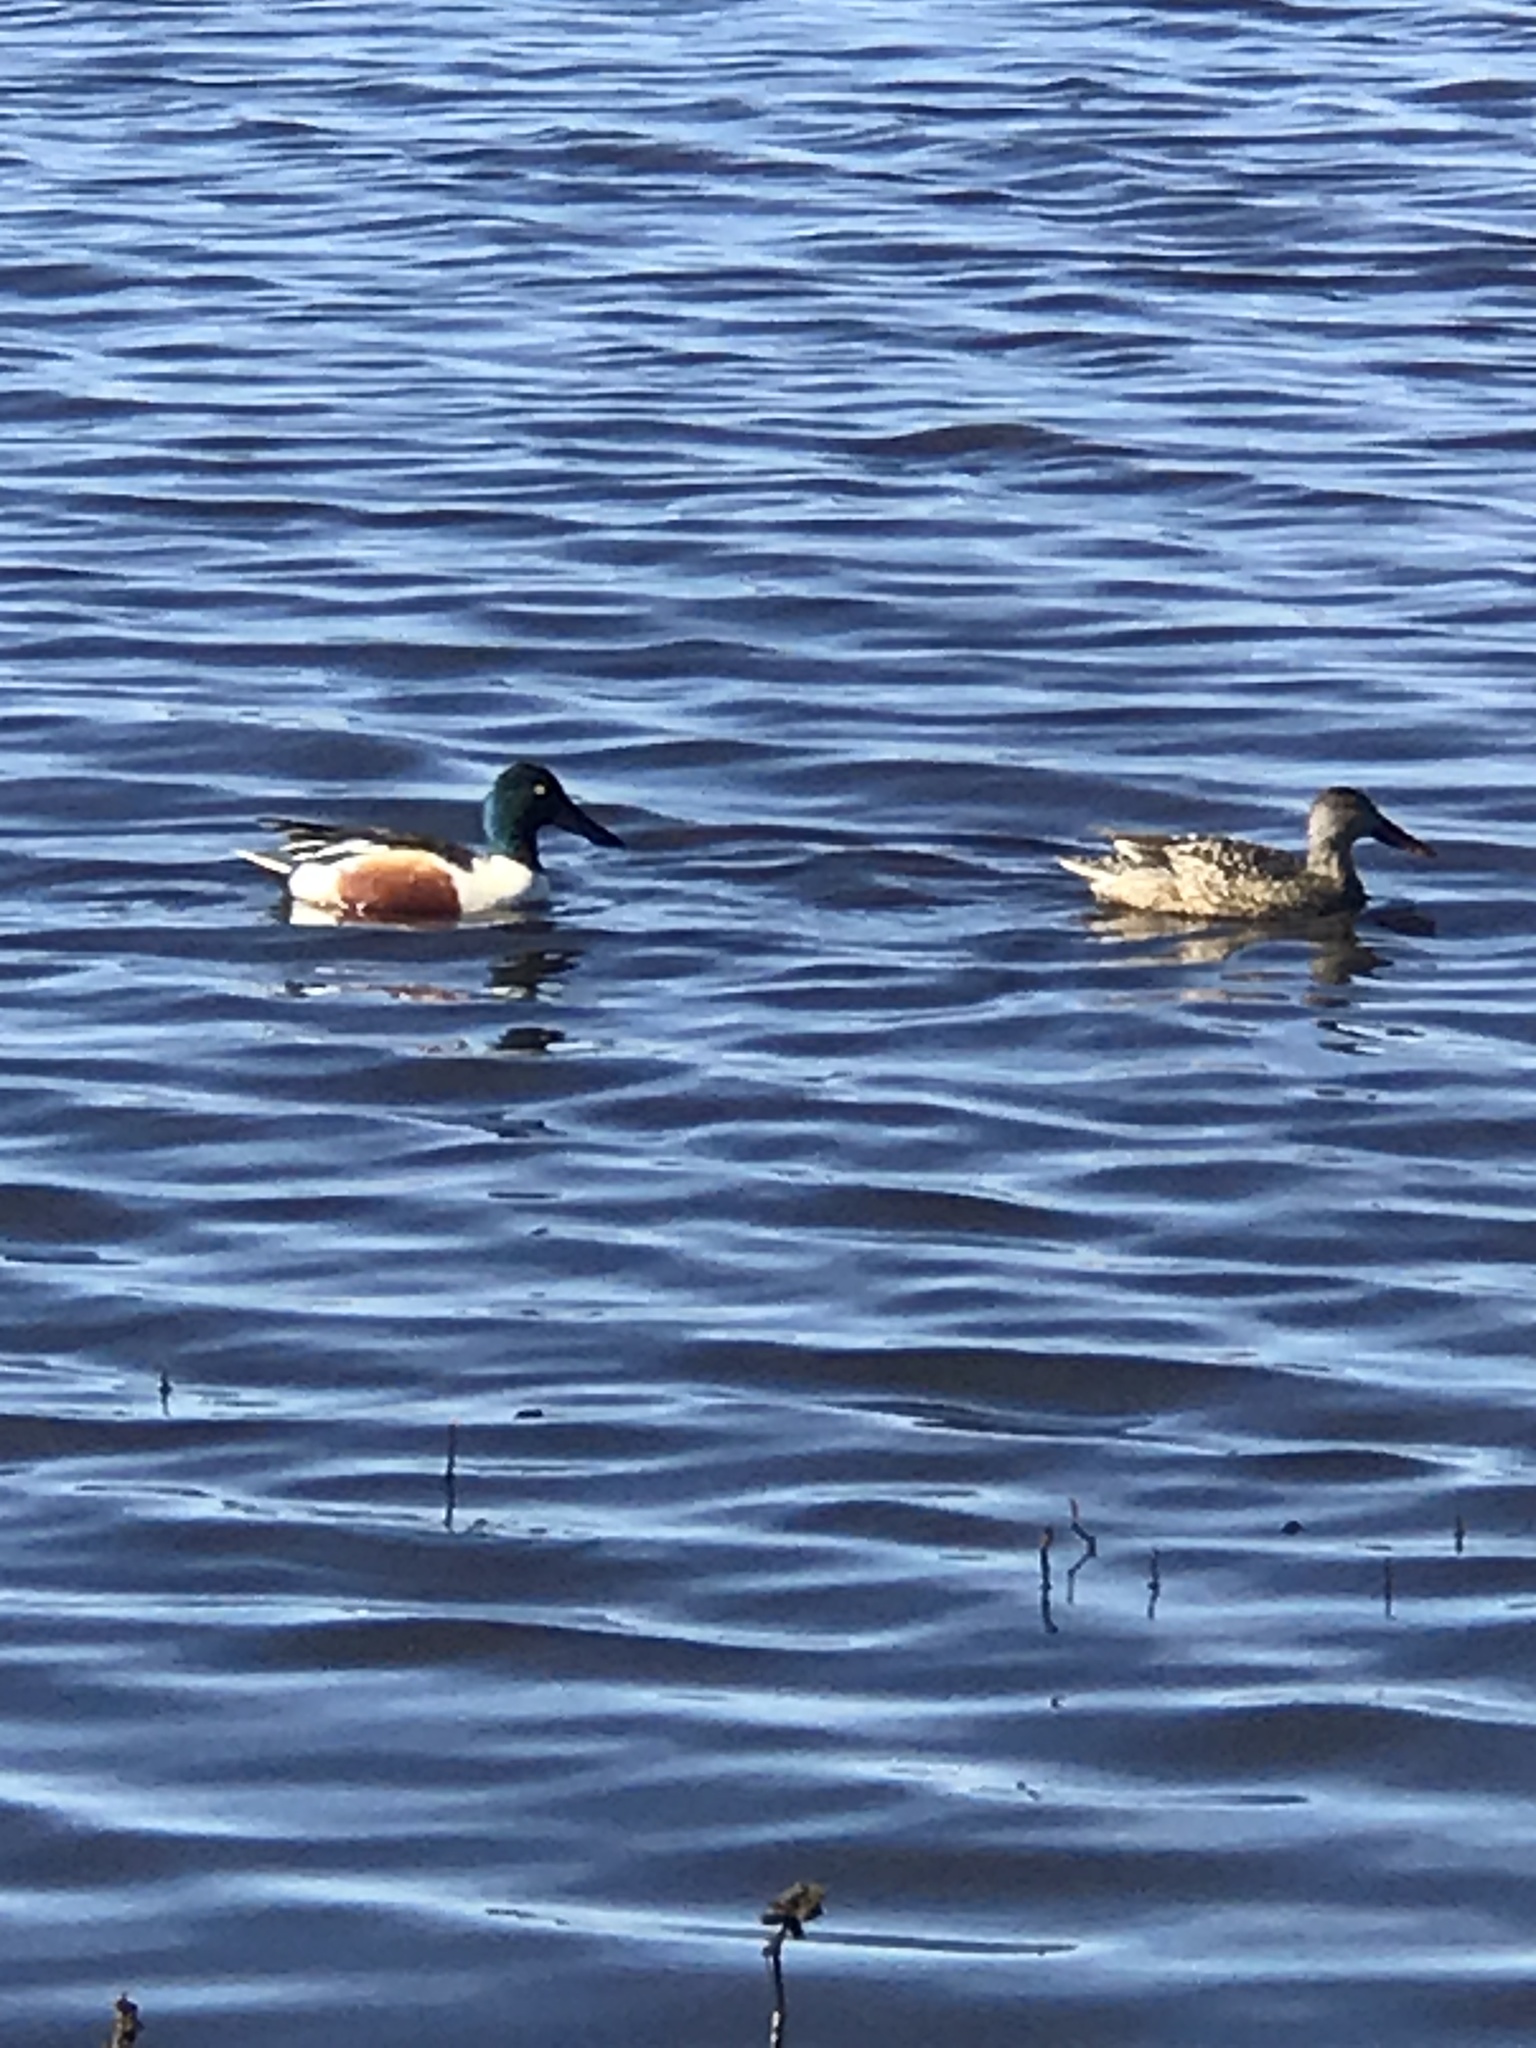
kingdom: Animalia
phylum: Chordata
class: Aves
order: Anseriformes
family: Anatidae
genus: Spatula
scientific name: Spatula clypeata
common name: Northern shoveler
